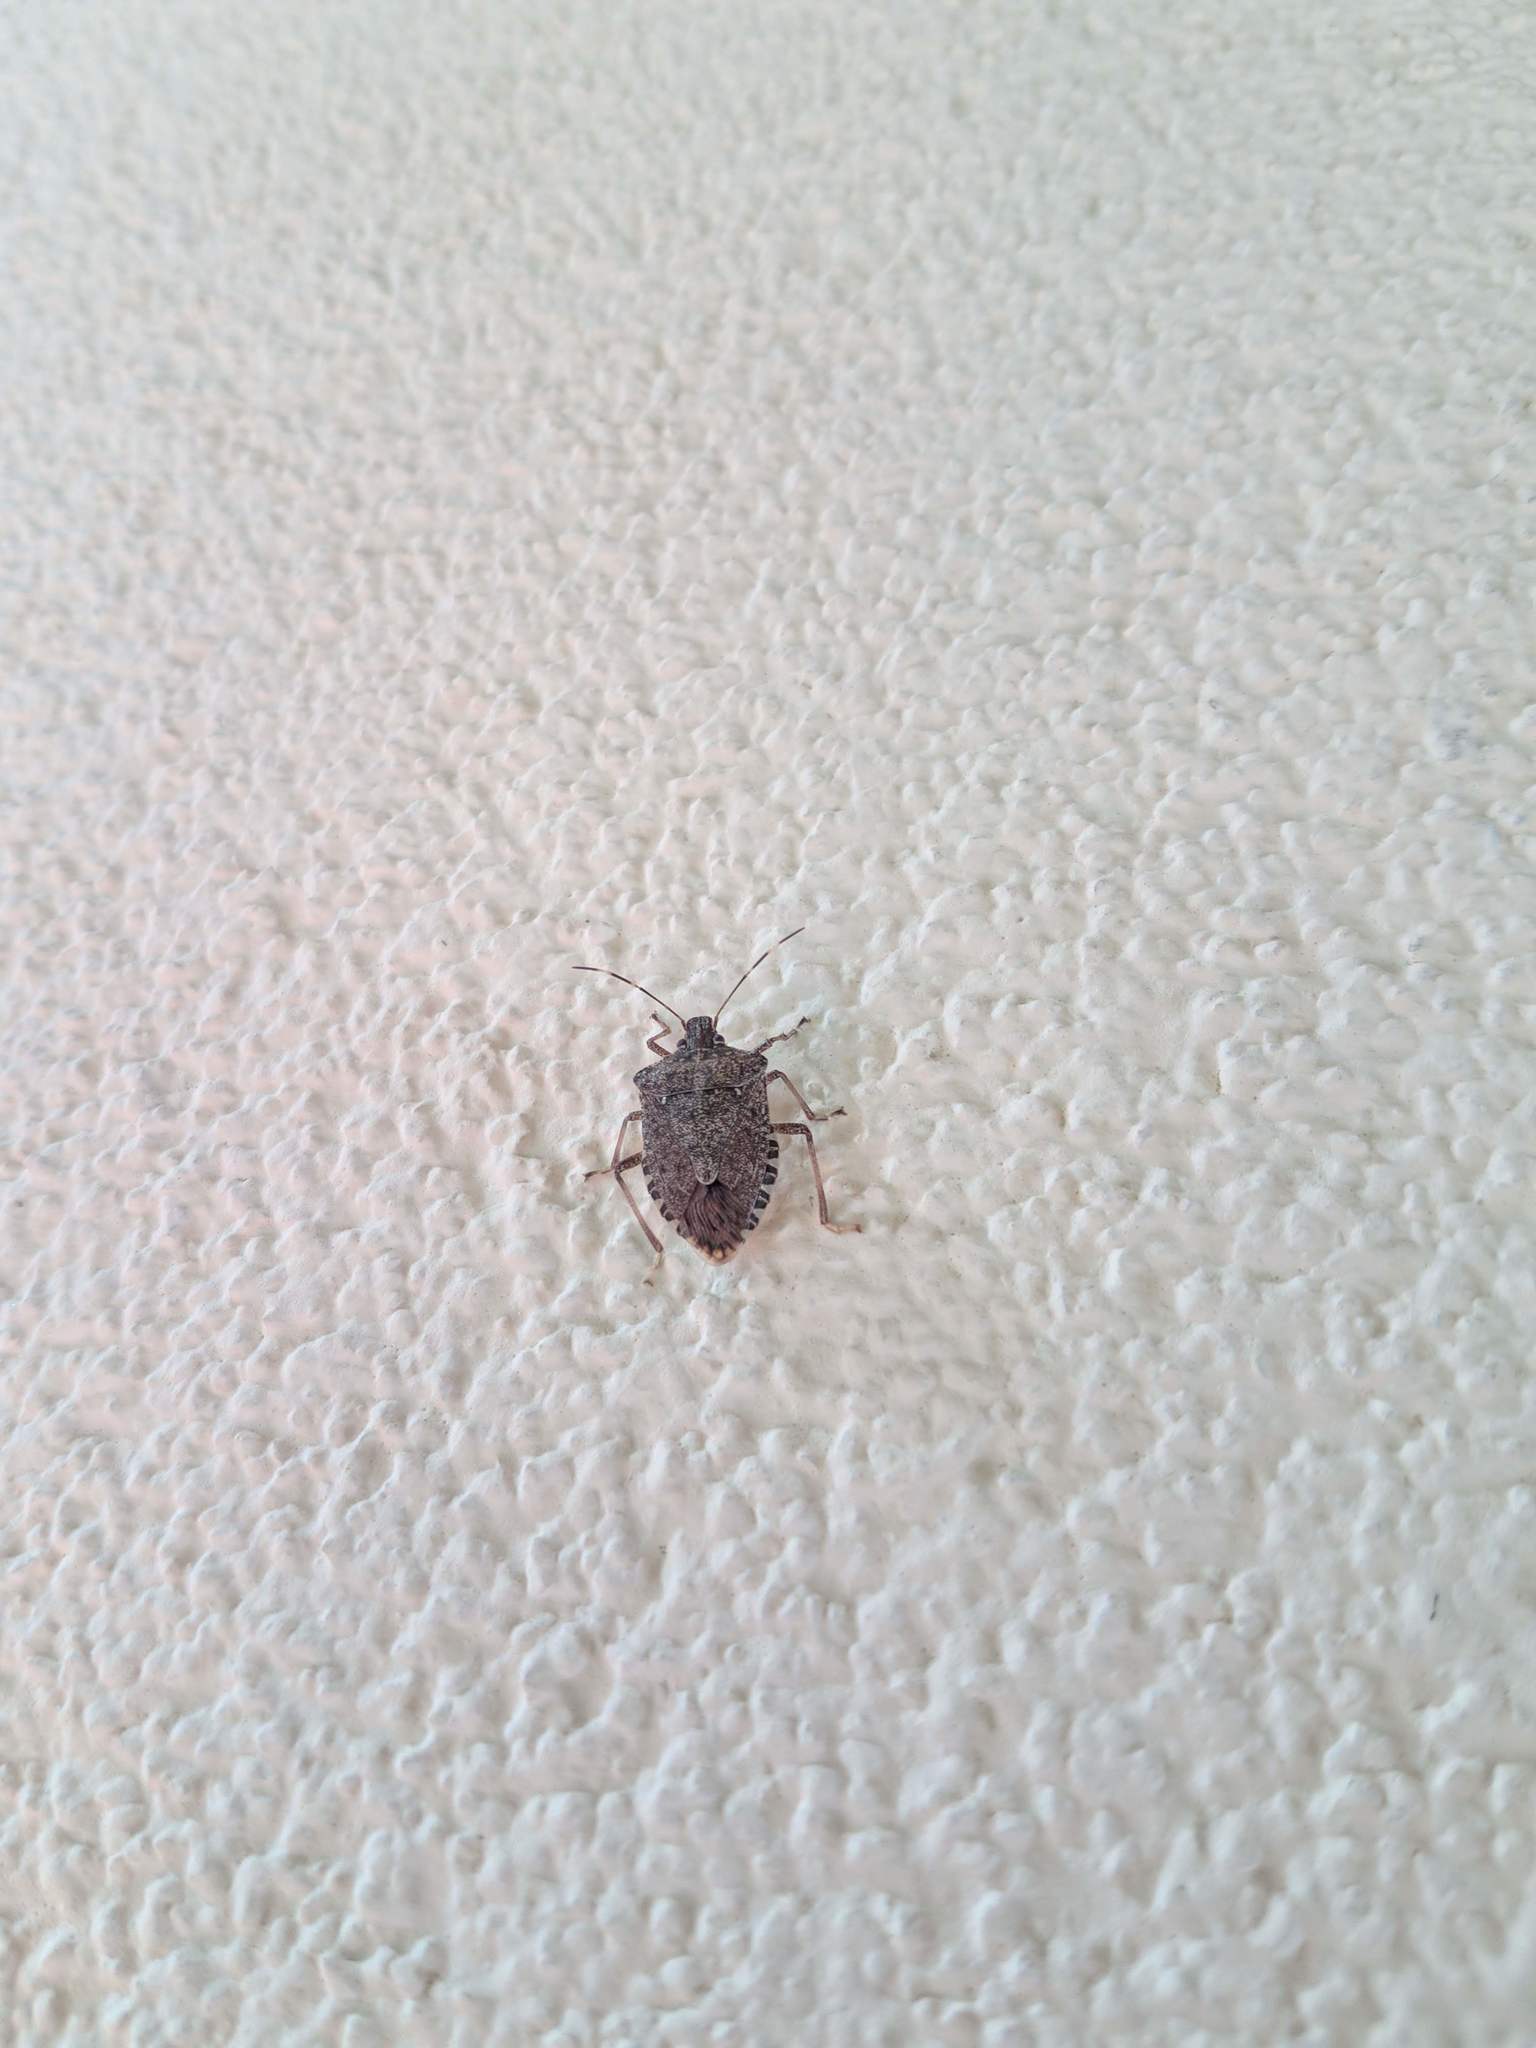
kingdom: Animalia
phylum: Arthropoda
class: Insecta
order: Hemiptera
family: Pentatomidae
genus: Halyomorpha
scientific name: Halyomorpha halys
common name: Brown marmorated stink bug
